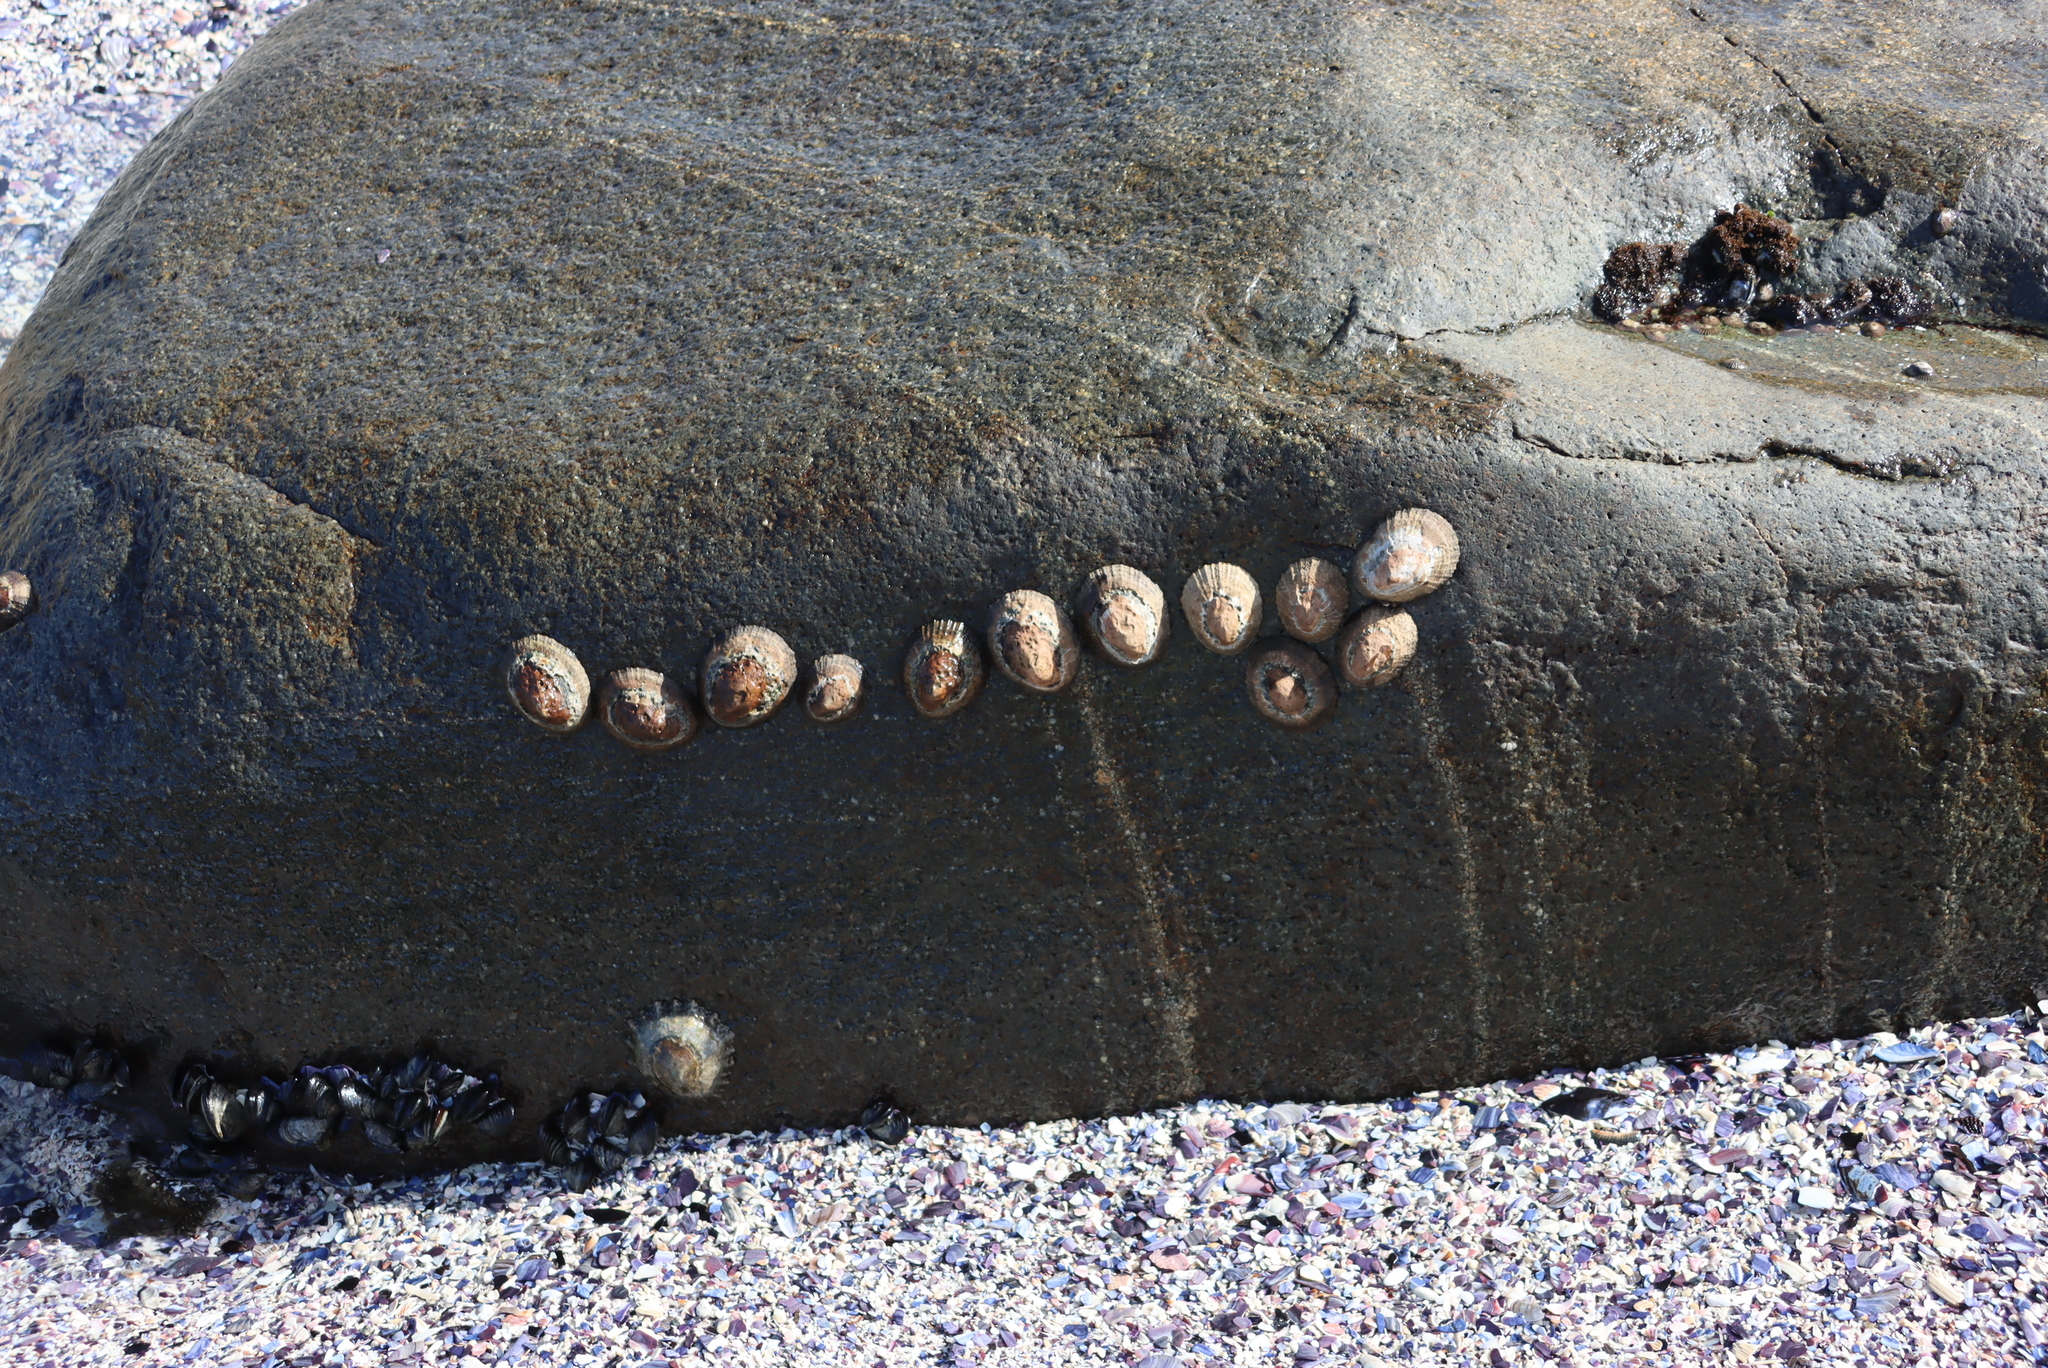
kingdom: Animalia
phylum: Mollusca
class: Gastropoda
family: Patellidae
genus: Scutellastra
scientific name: Scutellastra granularis
